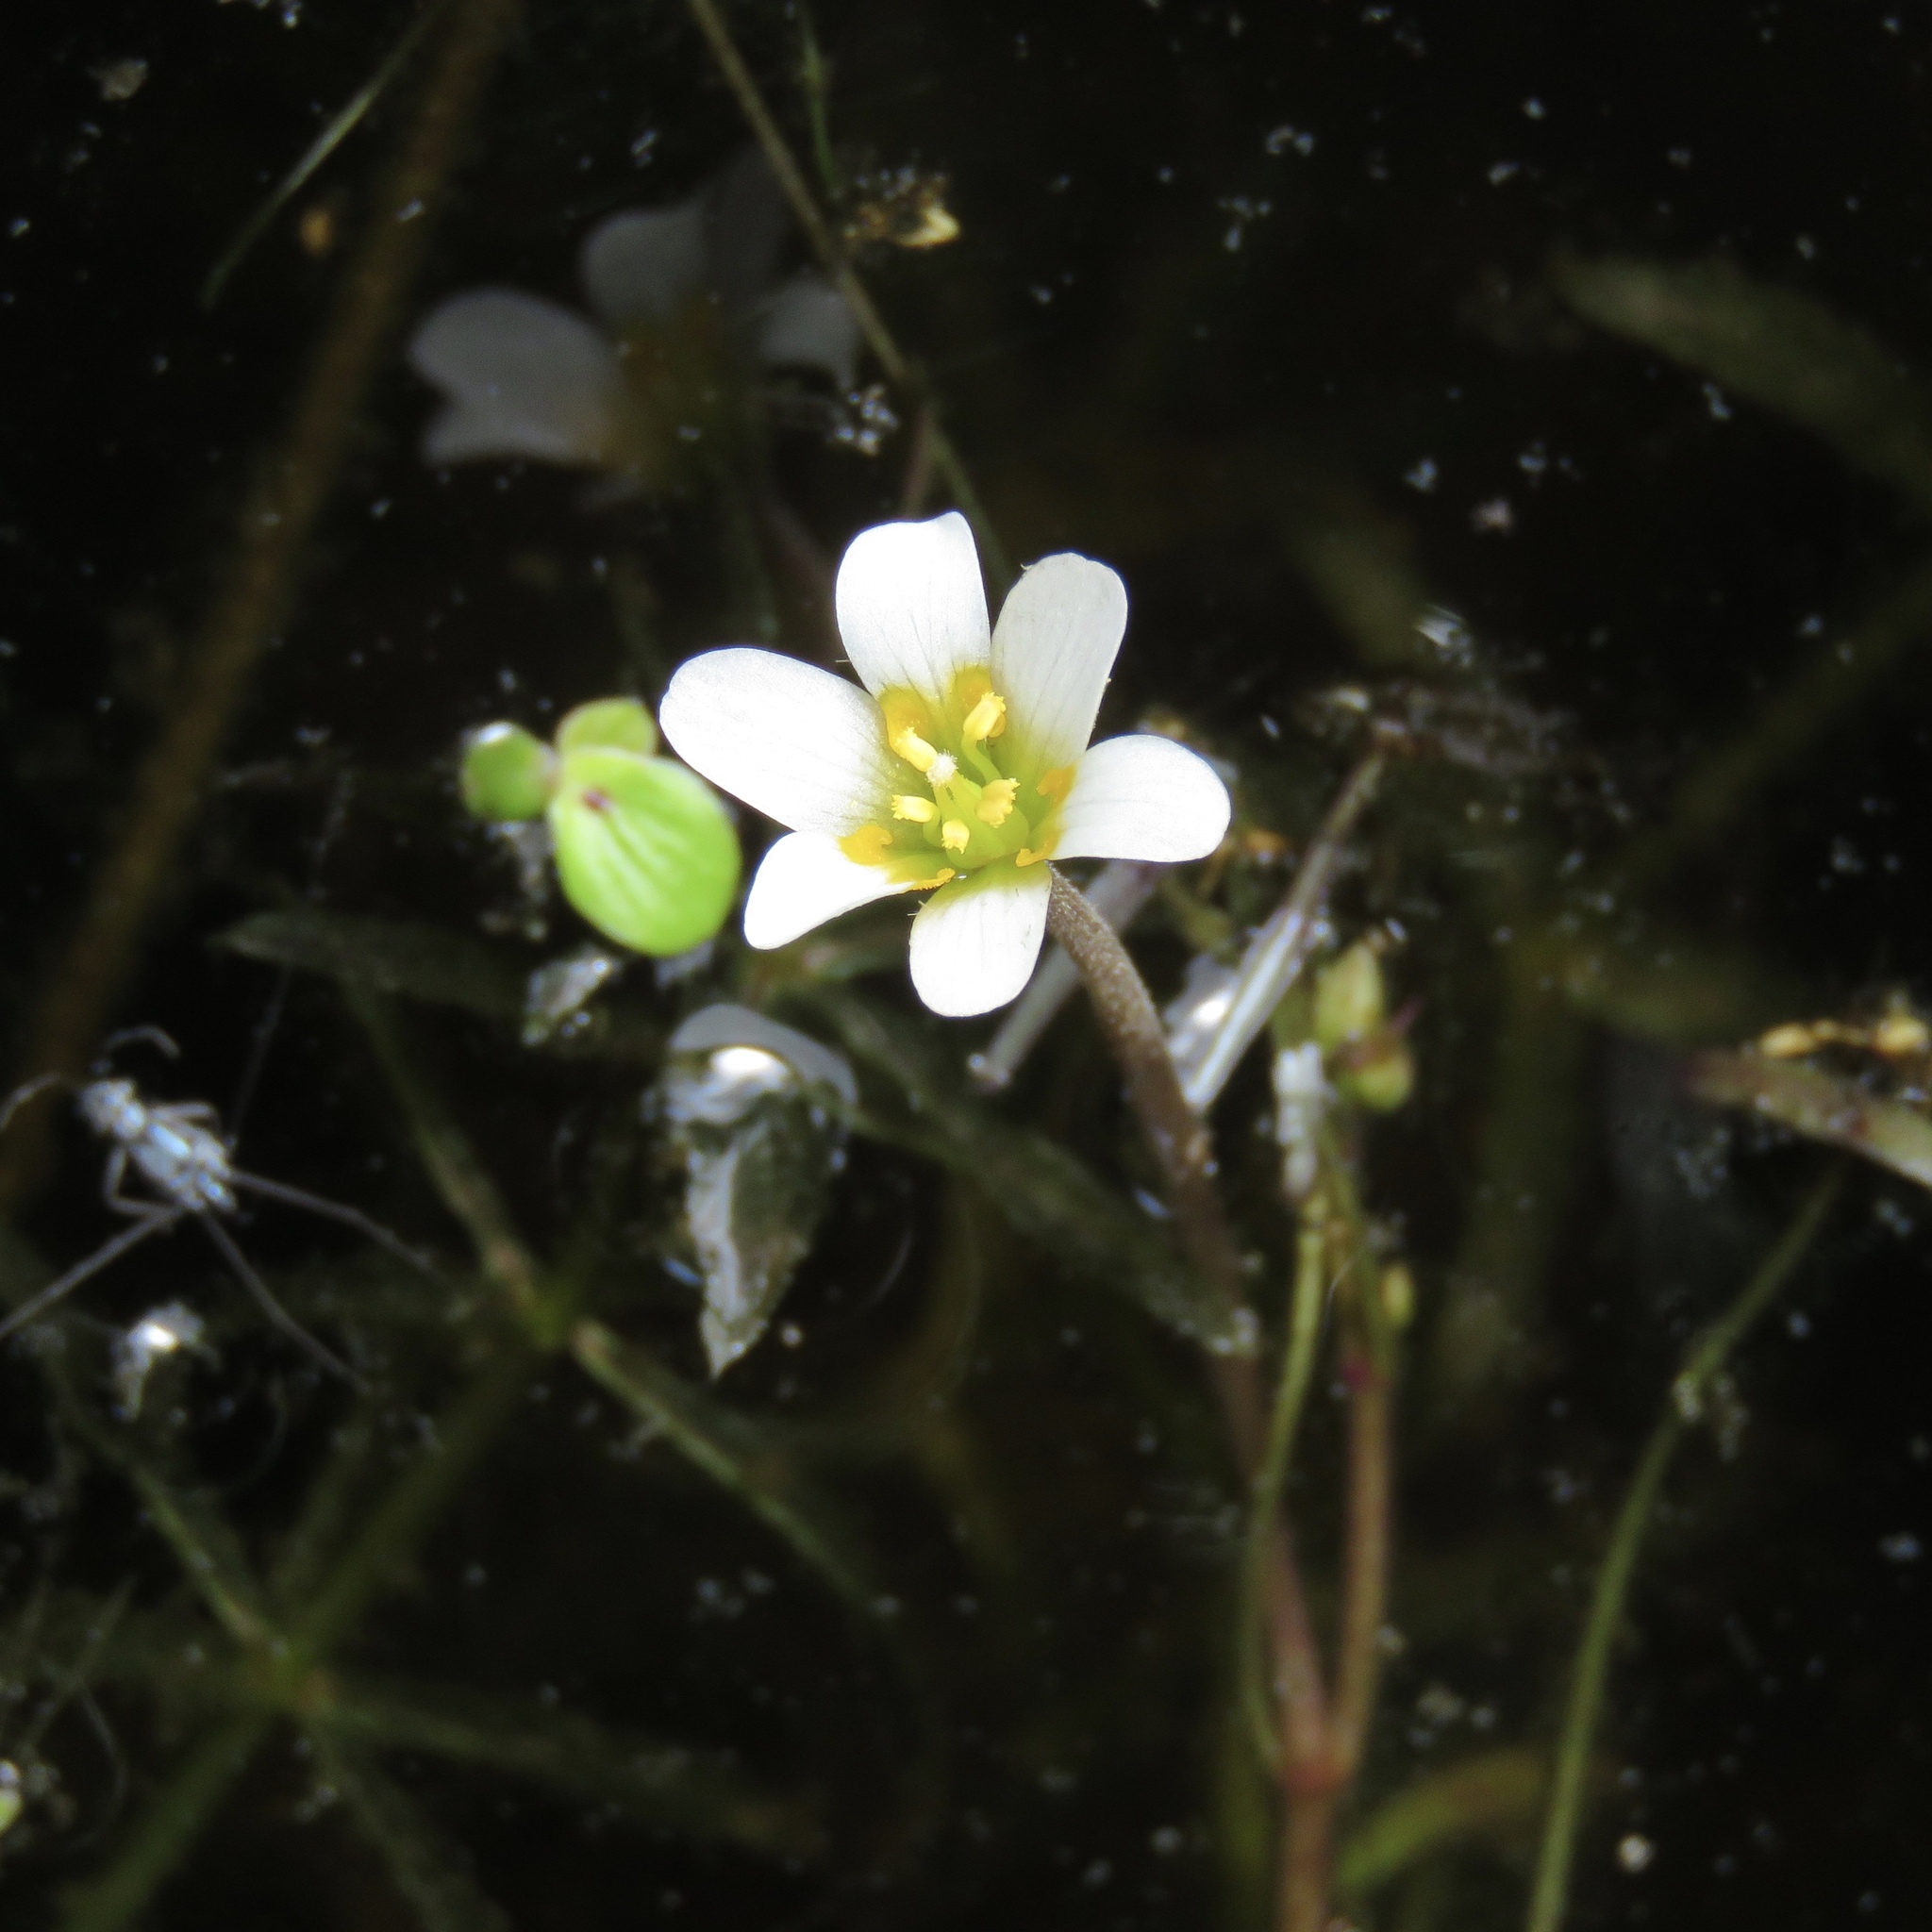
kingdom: Plantae
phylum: Tracheophyta
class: Magnoliopsida
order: Nymphaeales
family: Cabombaceae
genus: Cabomba
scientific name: Cabomba caroliniana
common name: Fanwort
